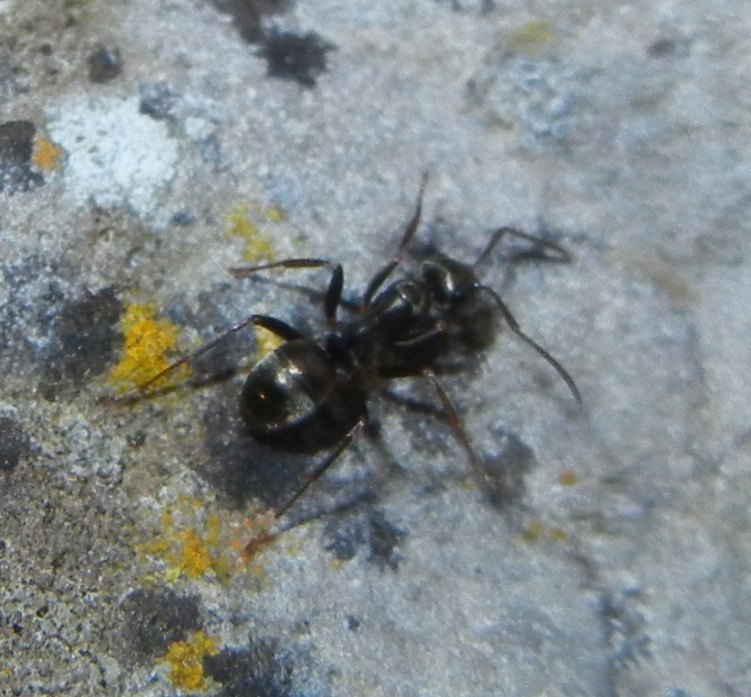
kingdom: Animalia
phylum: Arthropoda
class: Insecta
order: Hymenoptera
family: Formicidae
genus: Formica
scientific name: Formica fusca
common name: Silky ant
